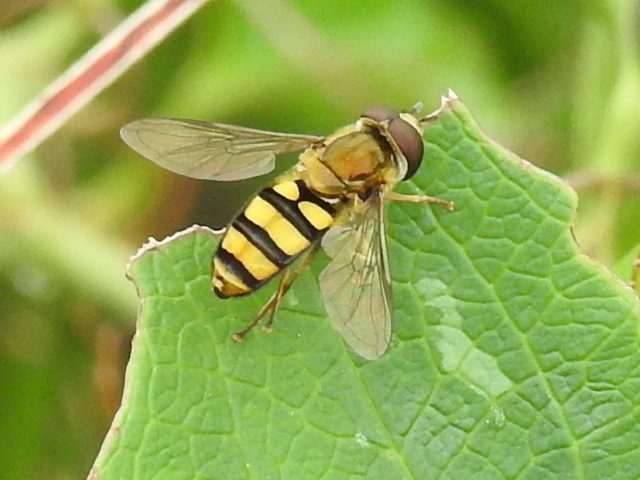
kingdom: Animalia
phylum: Arthropoda
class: Insecta
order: Diptera
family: Syrphidae
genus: Eupeodes
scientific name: Eupeodes
